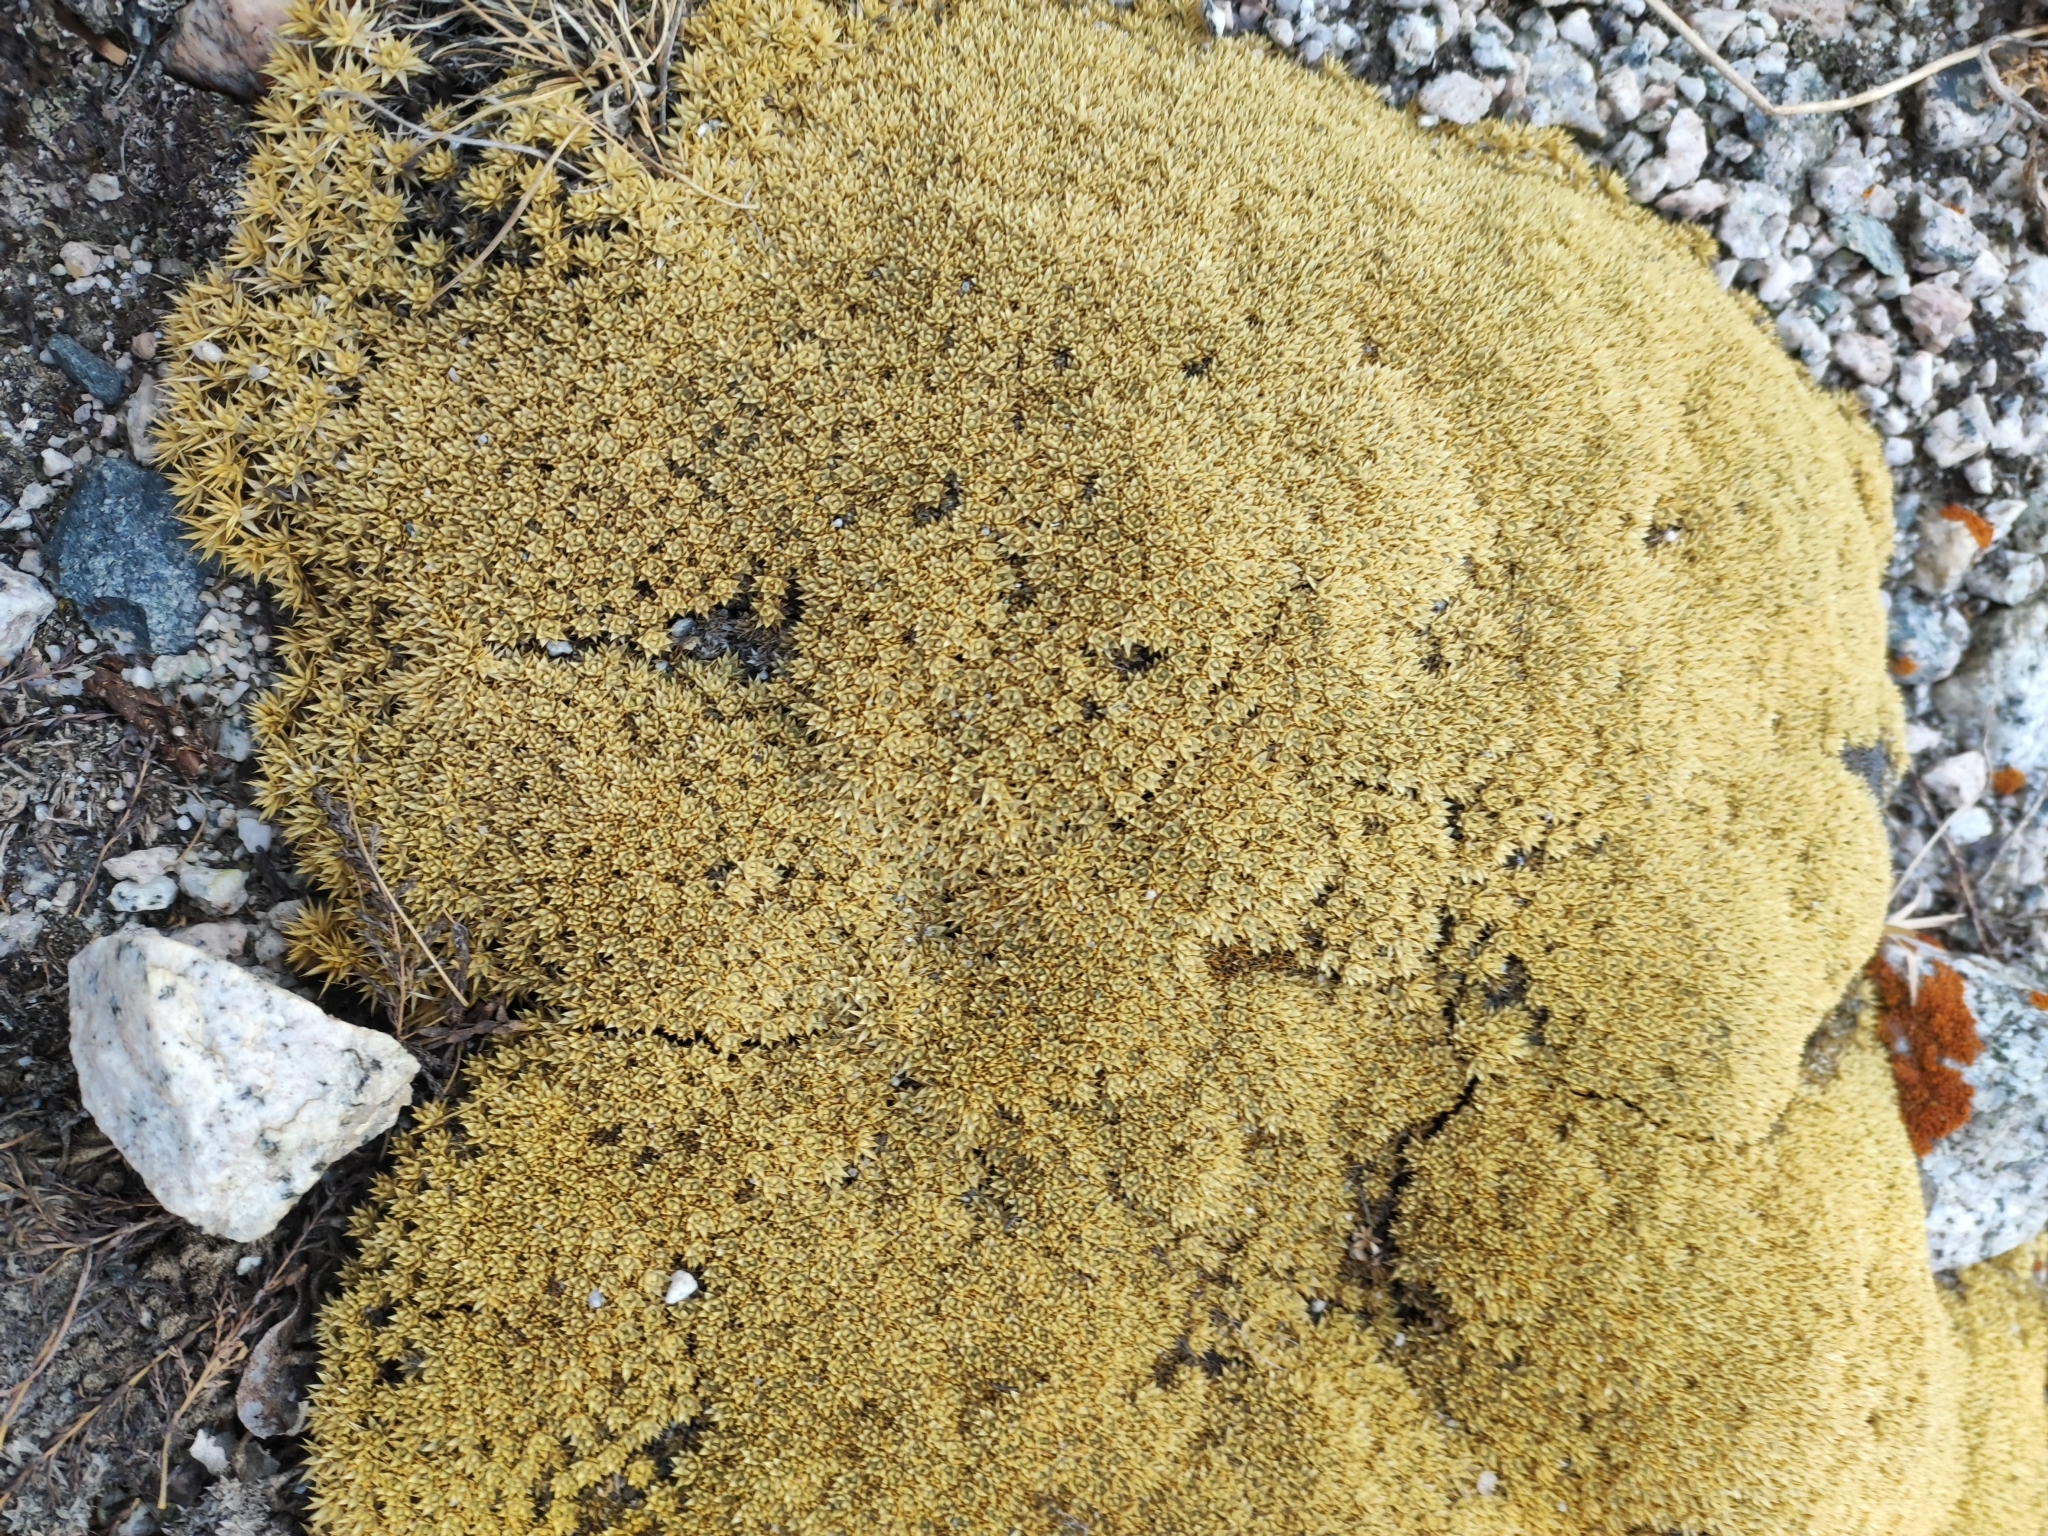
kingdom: Plantae
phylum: Tracheophyta
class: Magnoliopsida
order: Caryophyllales
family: Caryophyllaceae
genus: Thylacospermum
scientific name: Thylacospermum caespitosum
